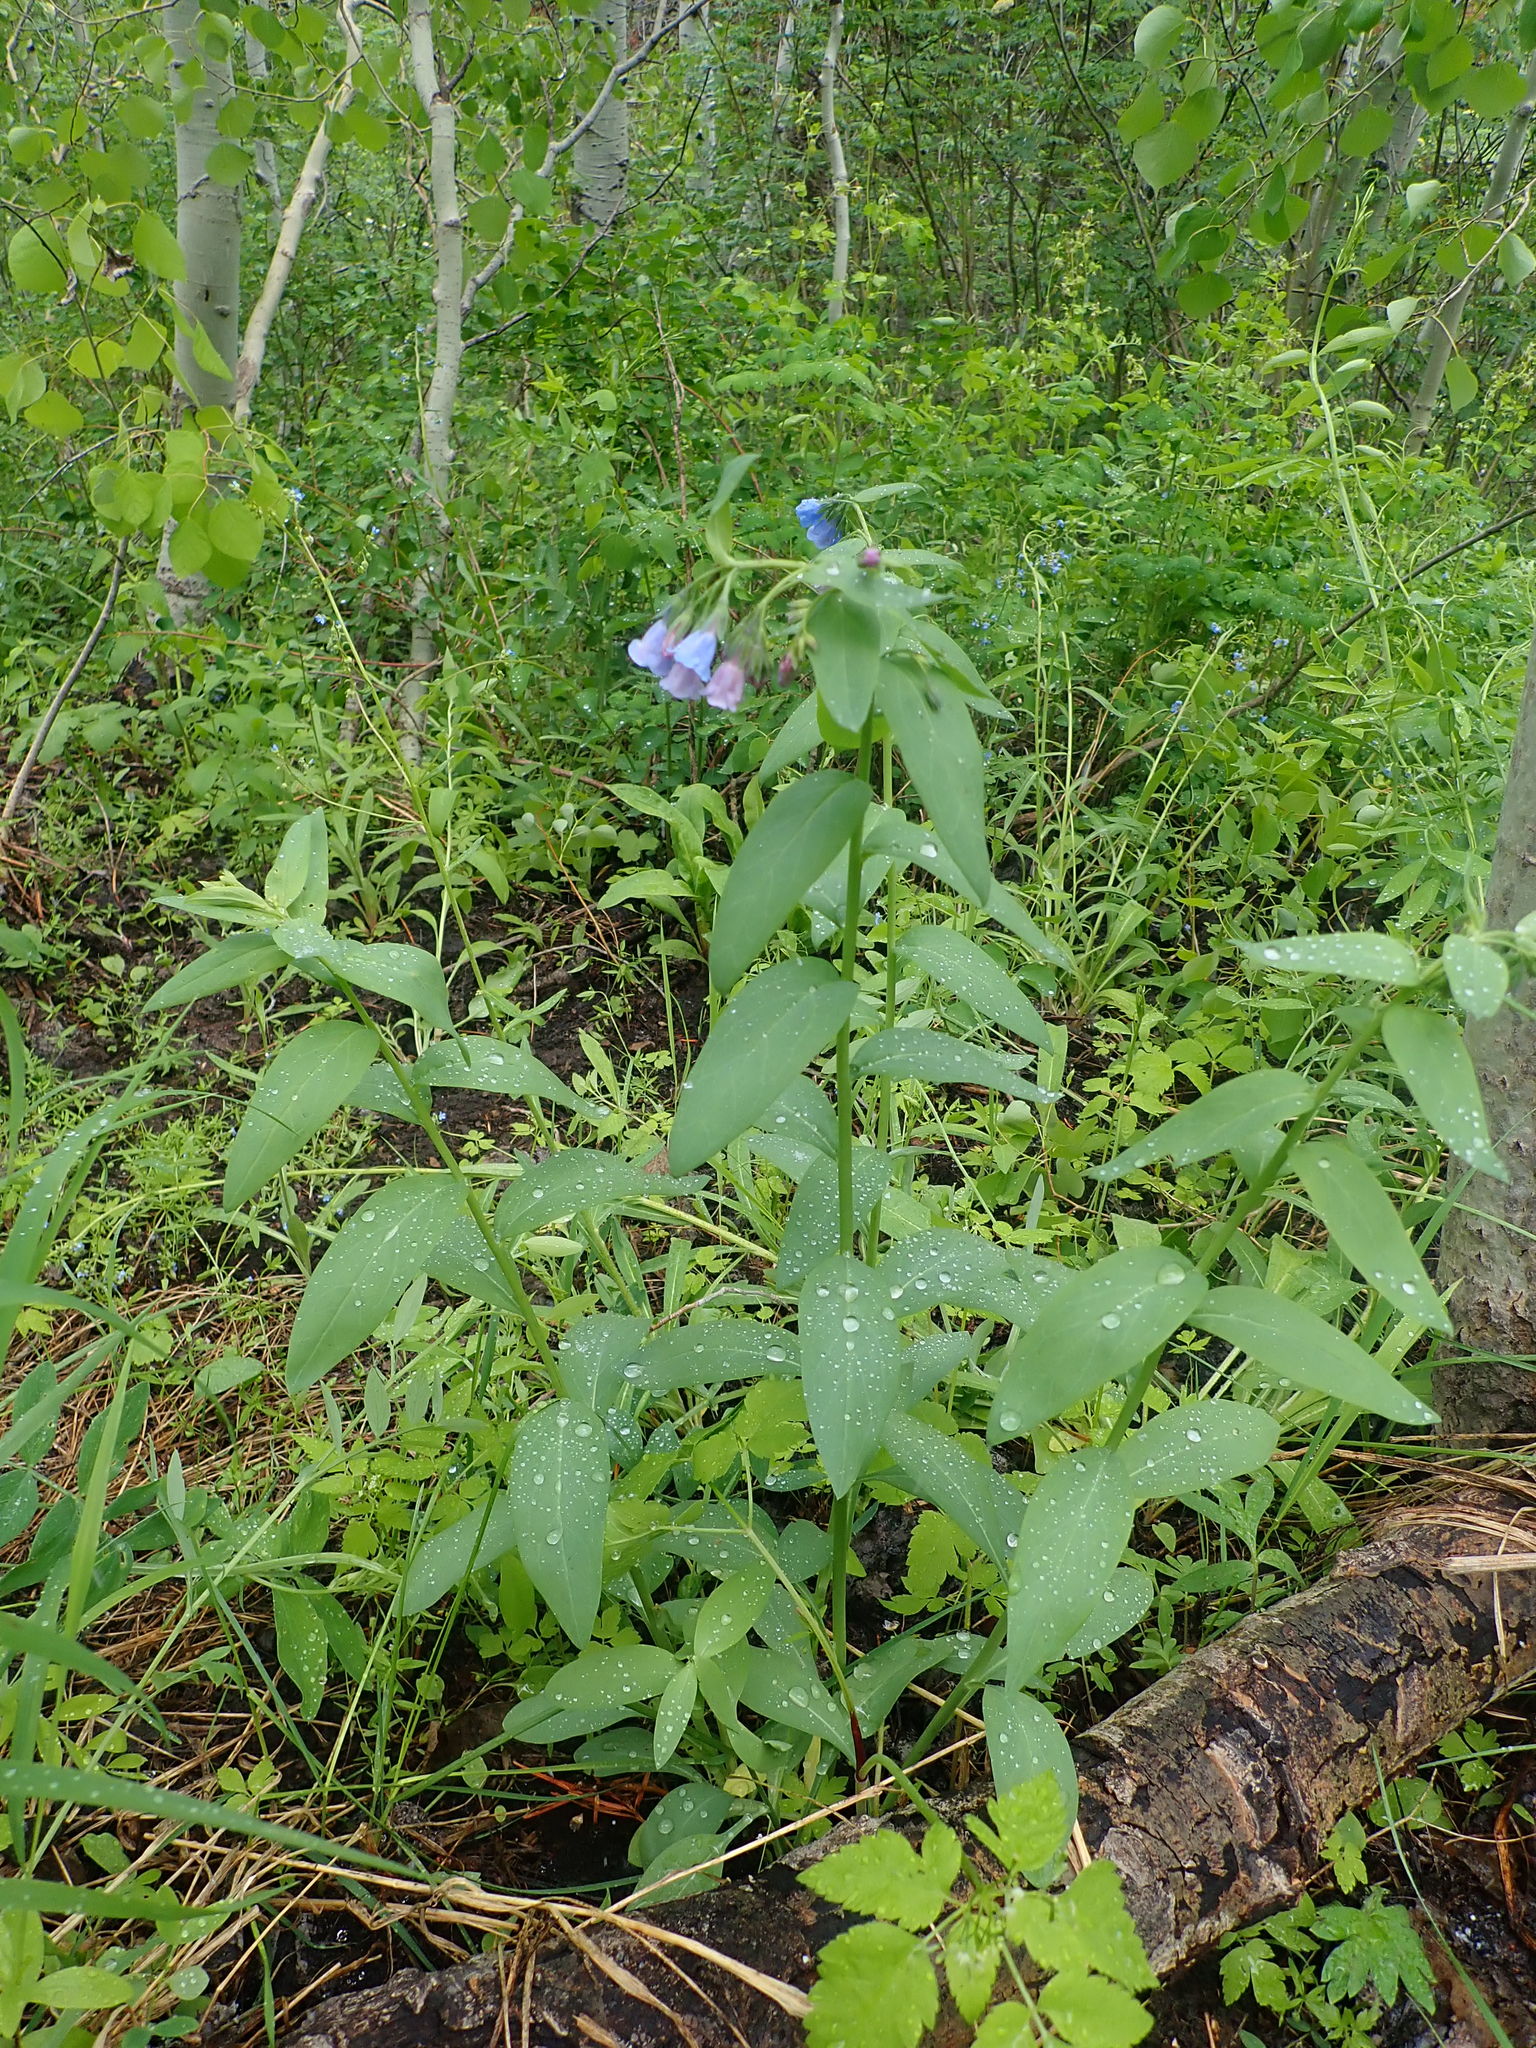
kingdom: Plantae
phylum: Tracheophyta
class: Magnoliopsida
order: Boraginales
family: Boraginaceae
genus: Mertensia
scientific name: Mertensia arizonica
